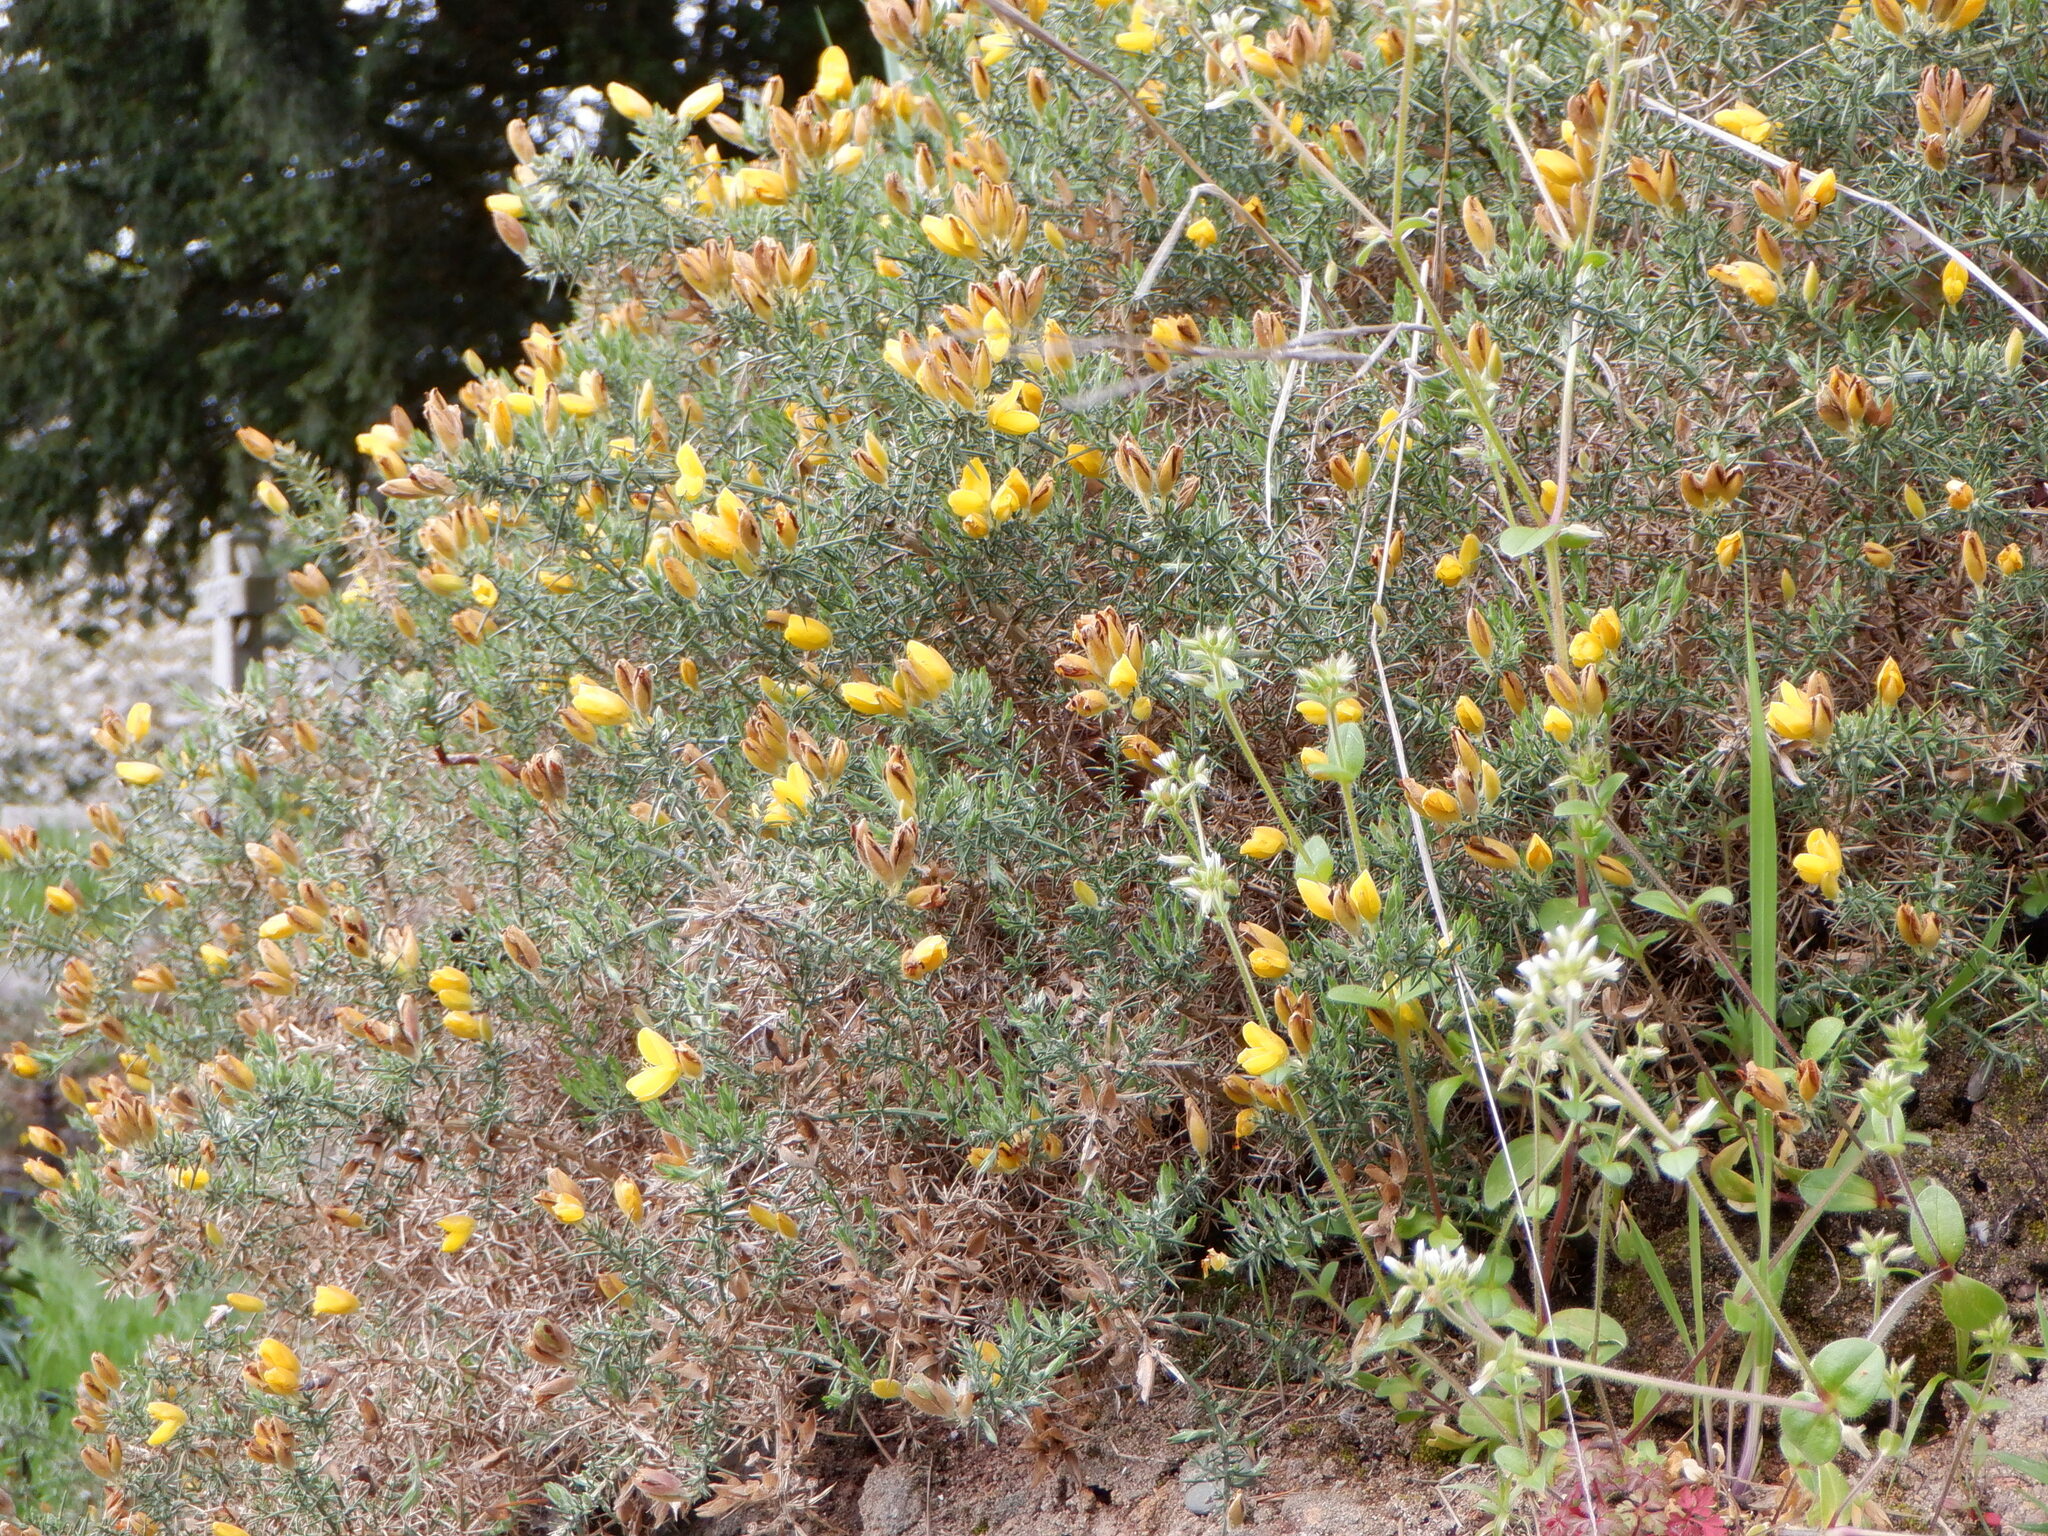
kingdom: Plantae
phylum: Tracheophyta
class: Magnoliopsida
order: Fabales
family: Fabaceae
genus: Ulex
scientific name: Ulex europaeus
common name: Common gorse
